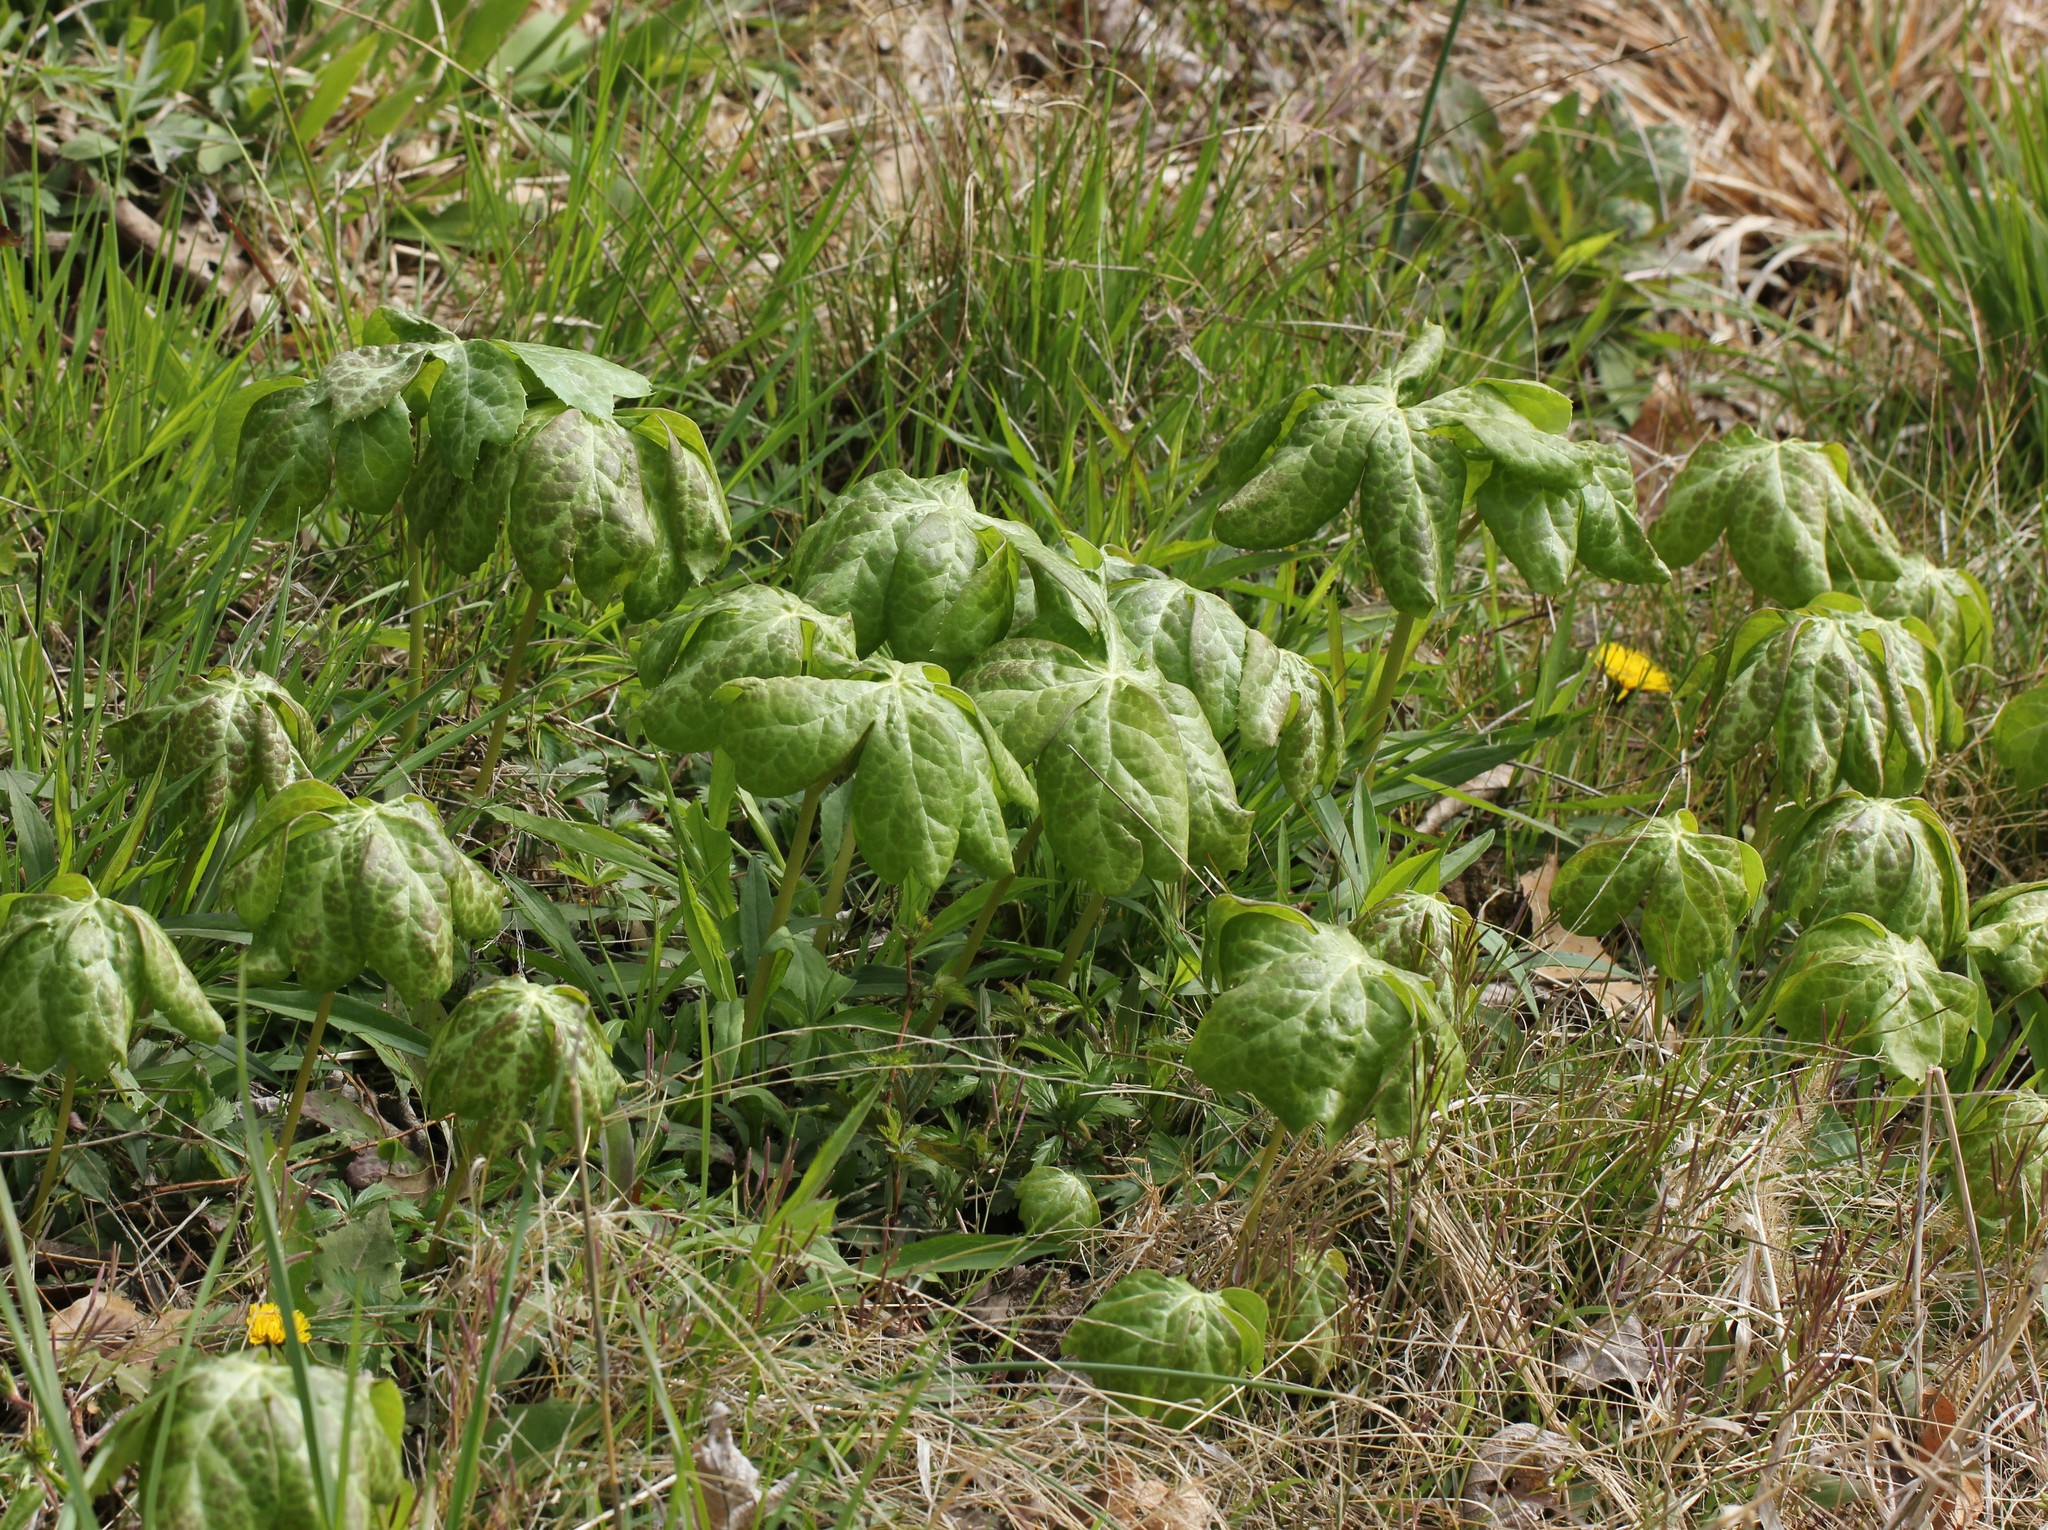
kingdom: Plantae
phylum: Tracheophyta
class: Magnoliopsida
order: Ranunculales
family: Berberidaceae
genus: Podophyllum
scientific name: Podophyllum peltatum
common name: Wild mandrake
